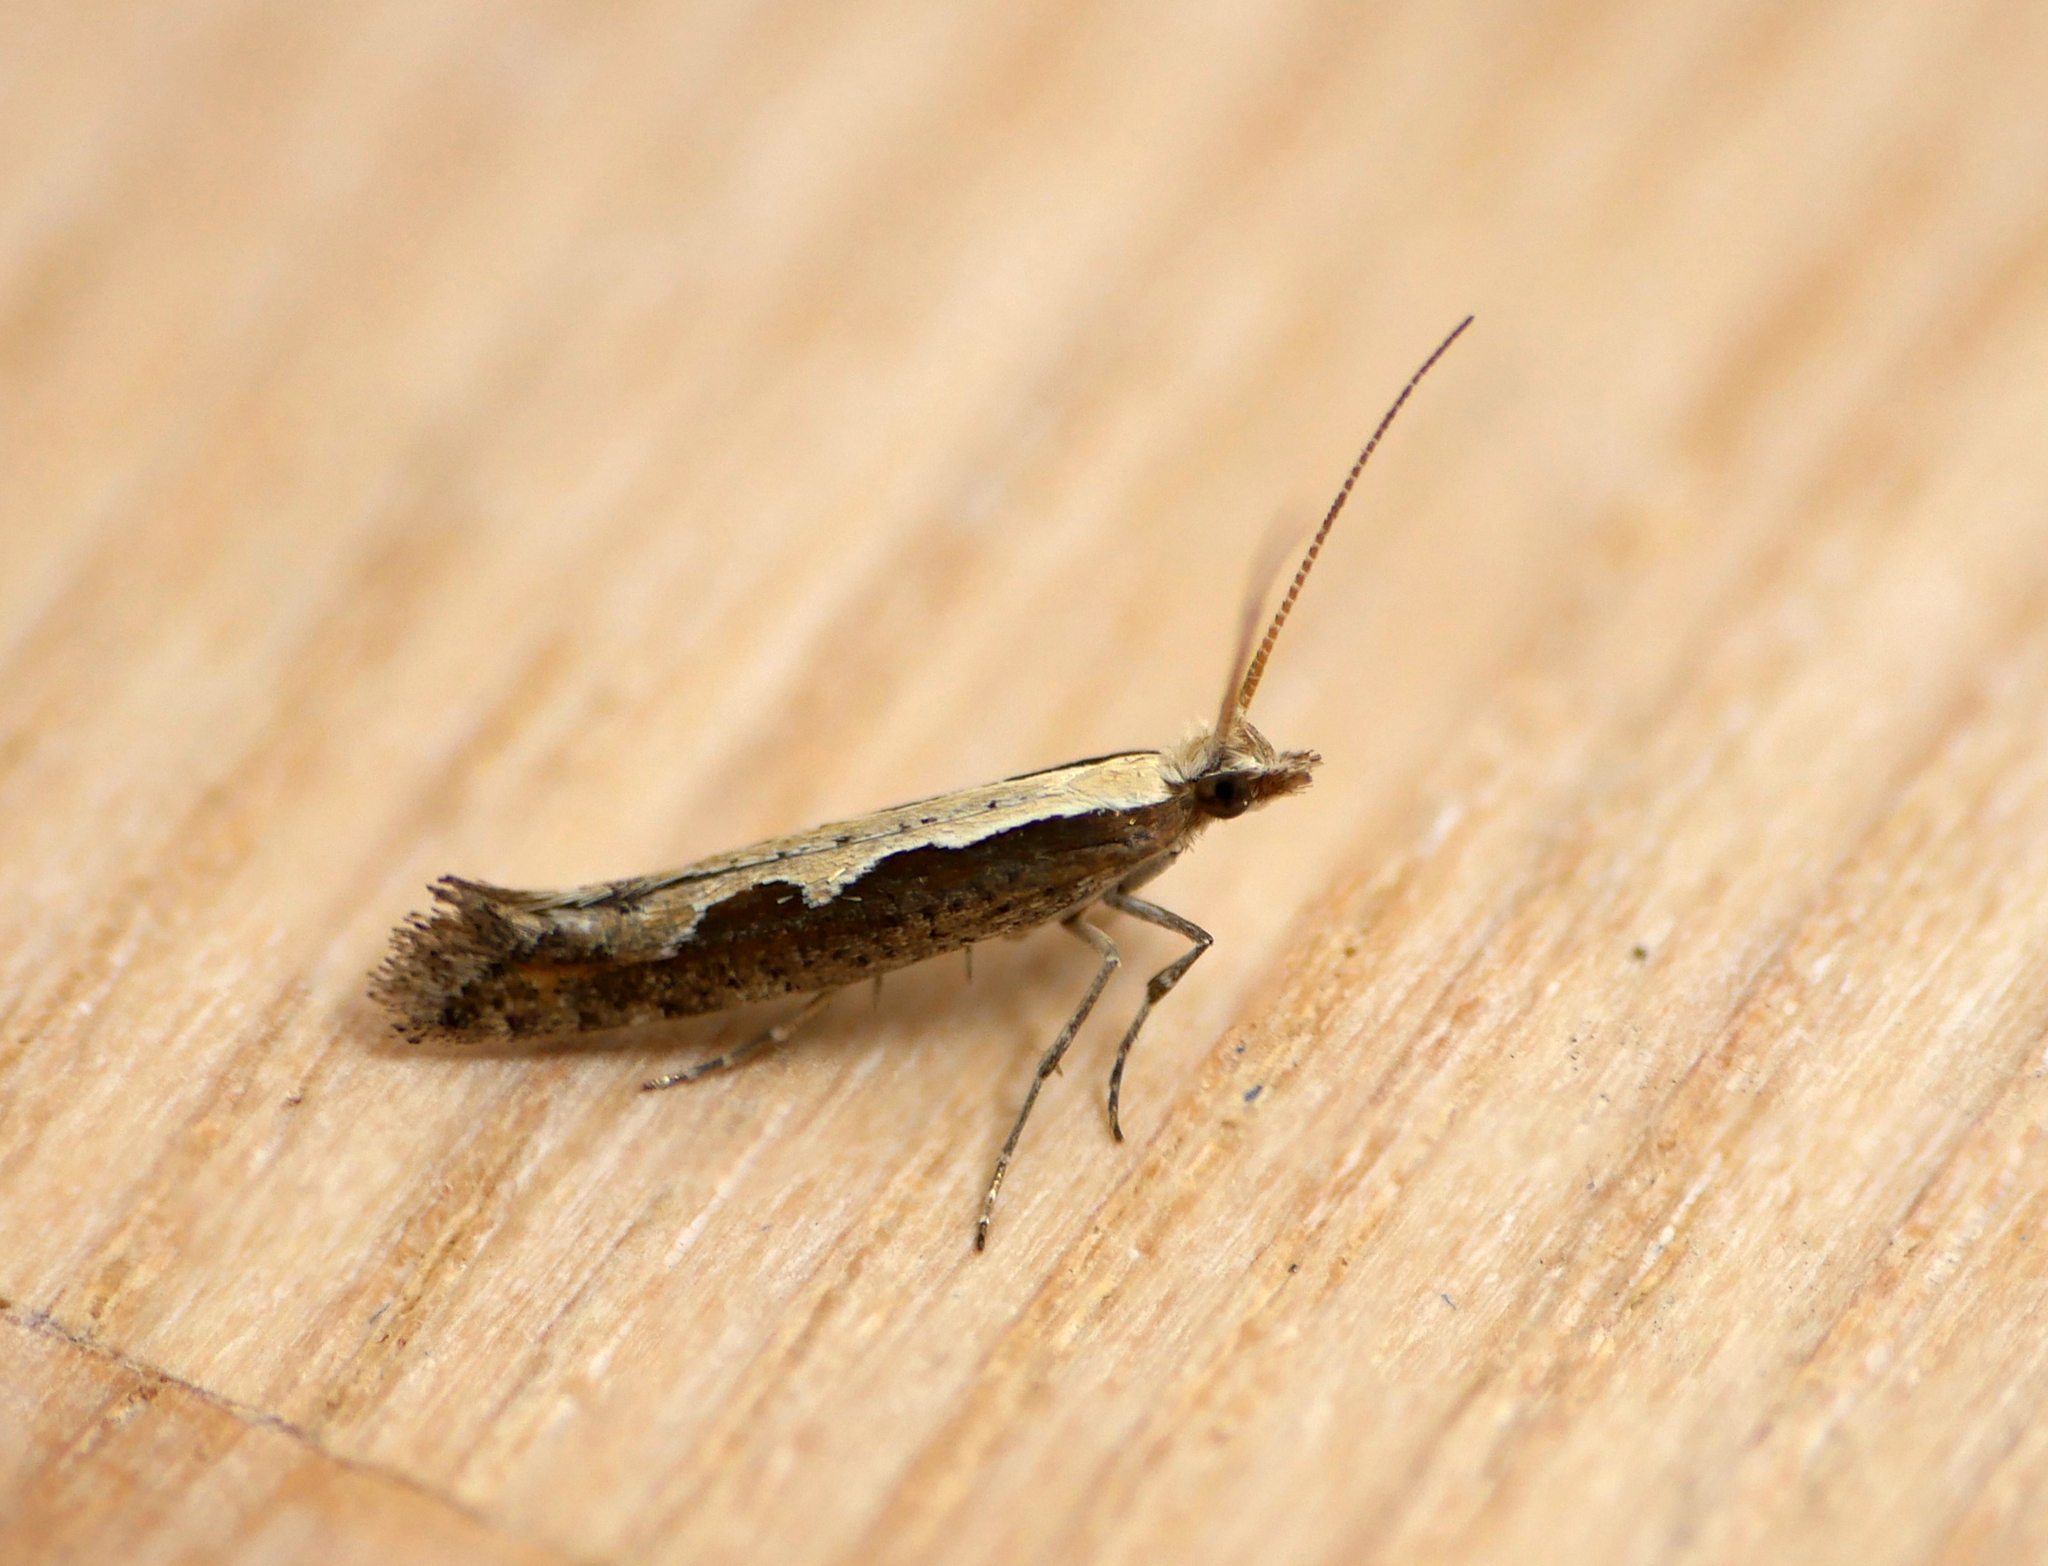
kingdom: Animalia
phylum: Arthropoda
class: Insecta
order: Lepidoptera
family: Plutellidae
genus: Plutella
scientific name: Plutella xylostella
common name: Diamond-back moth
